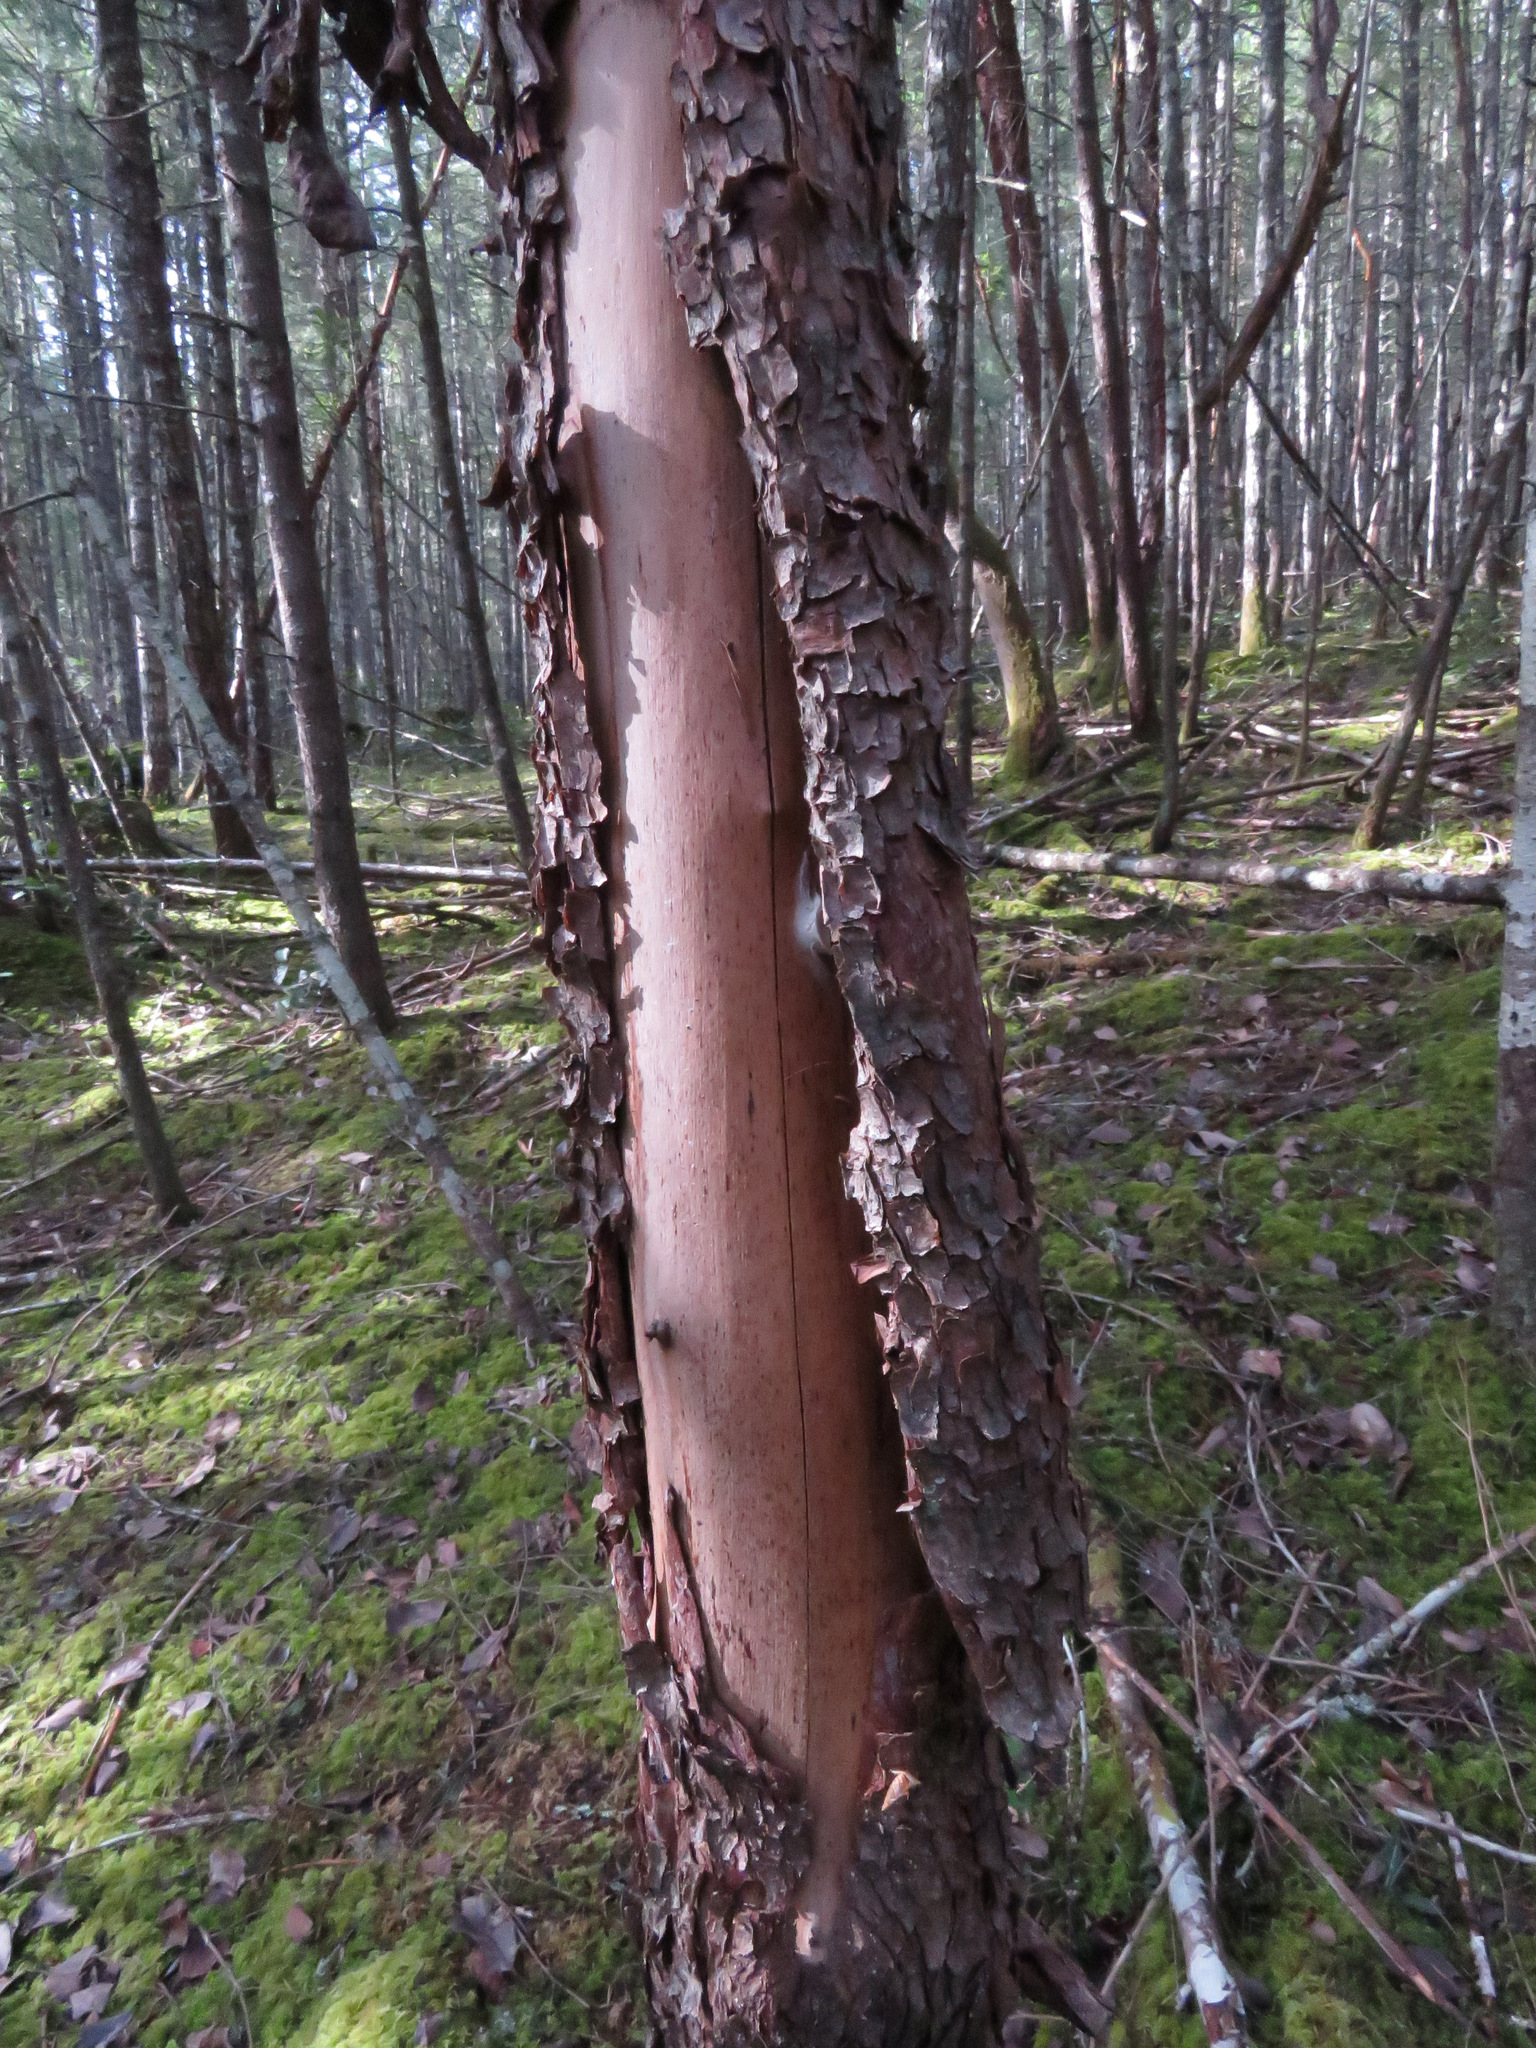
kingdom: Plantae
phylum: Tracheophyta
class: Magnoliopsida
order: Ericales
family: Ericaceae
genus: Arbutus
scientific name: Arbutus menziesii
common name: Pacific madrone
